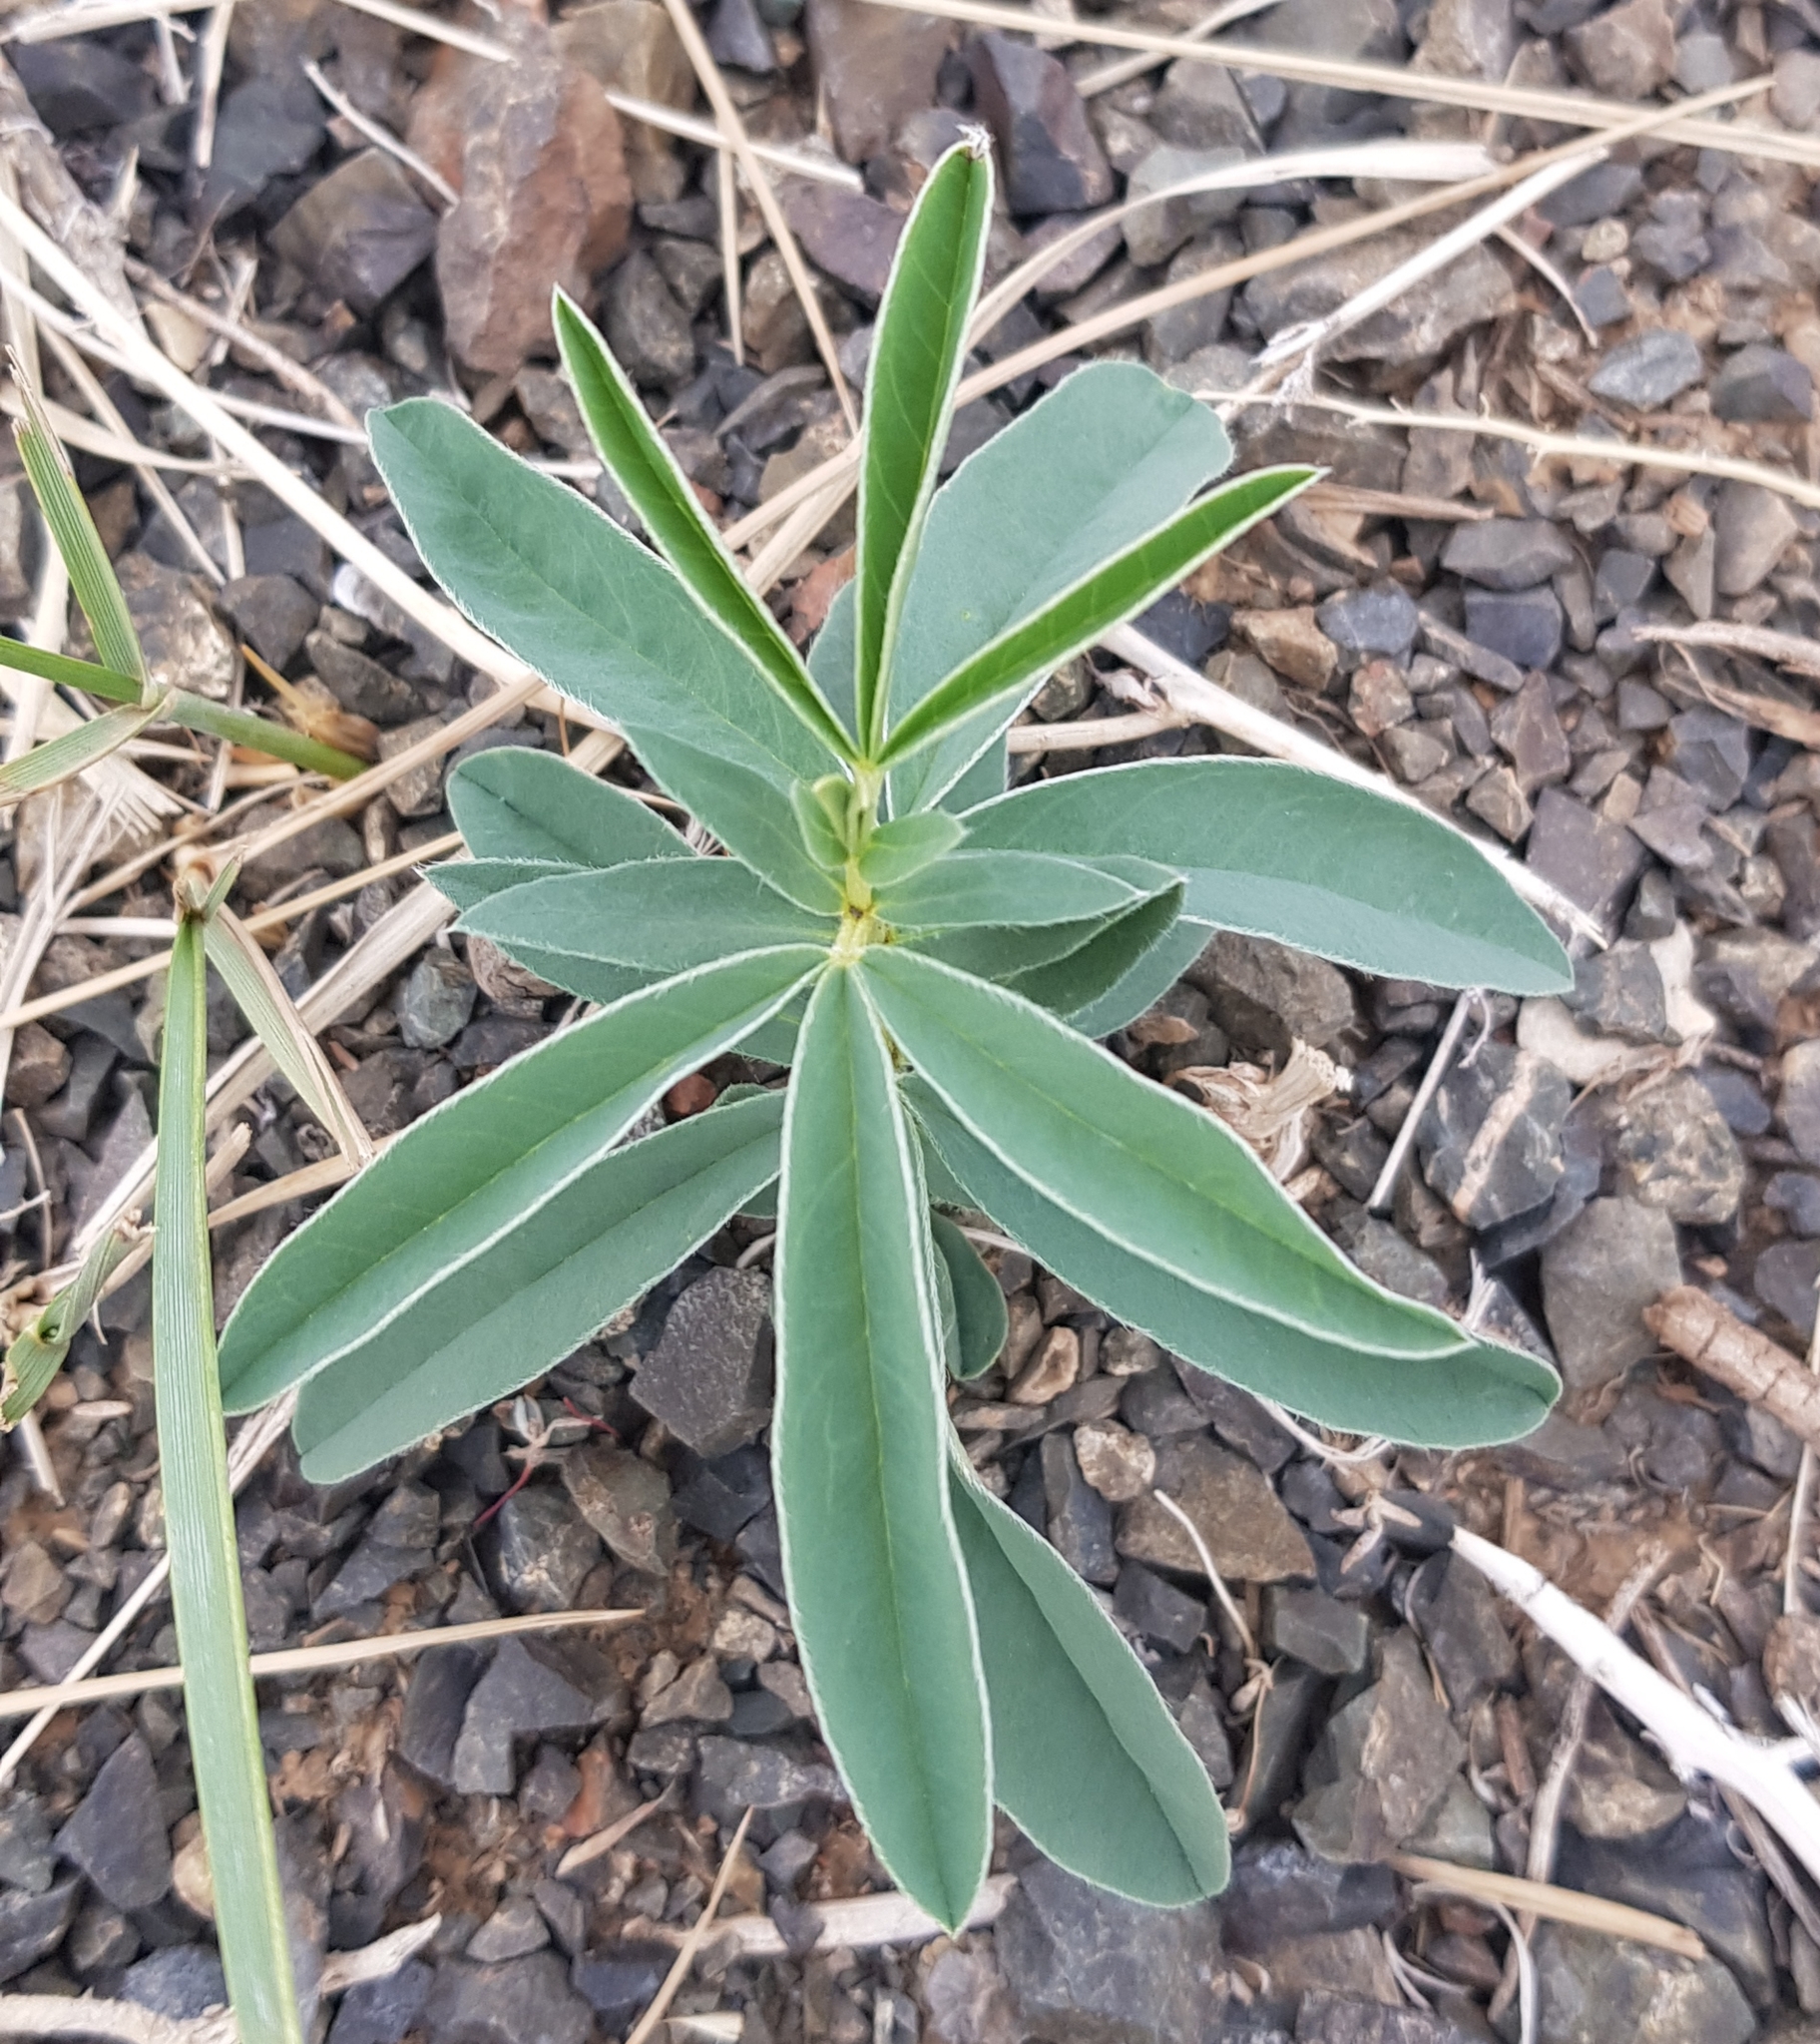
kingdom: Plantae
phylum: Tracheophyta
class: Magnoliopsida
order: Fabales
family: Fabaceae
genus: Thermopsis
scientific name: Thermopsis mongolica
